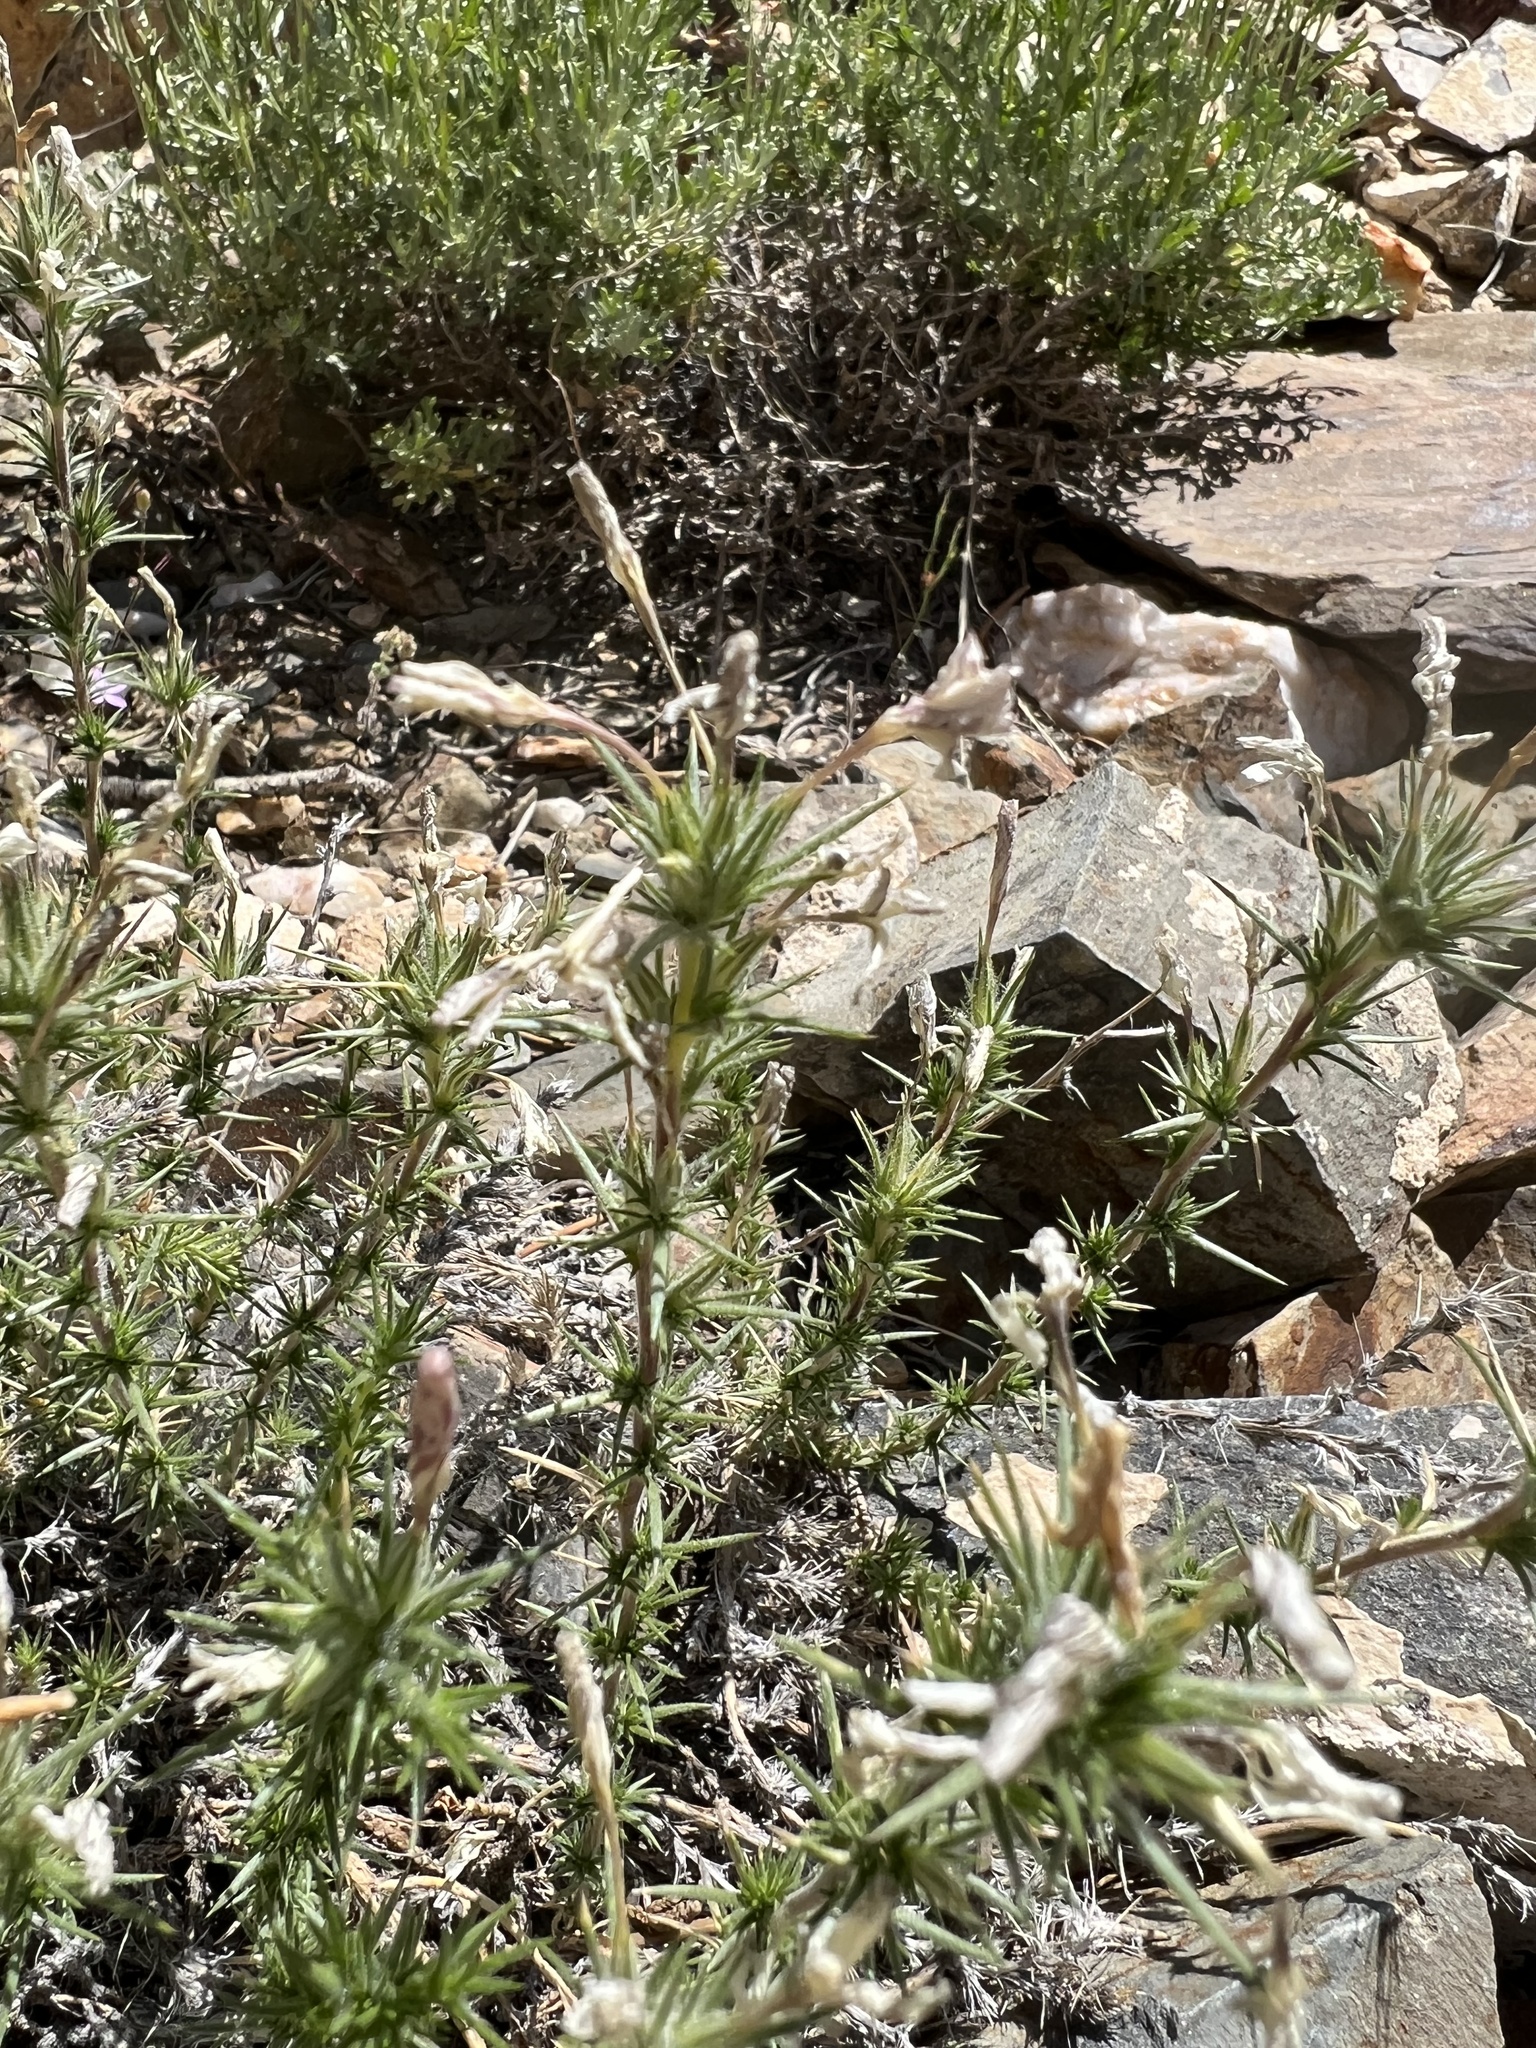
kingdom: Plantae
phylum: Tracheophyta
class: Magnoliopsida
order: Ericales
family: Polemoniaceae
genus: Linanthus
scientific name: Linanthus pungens
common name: Granite prickly phlox
